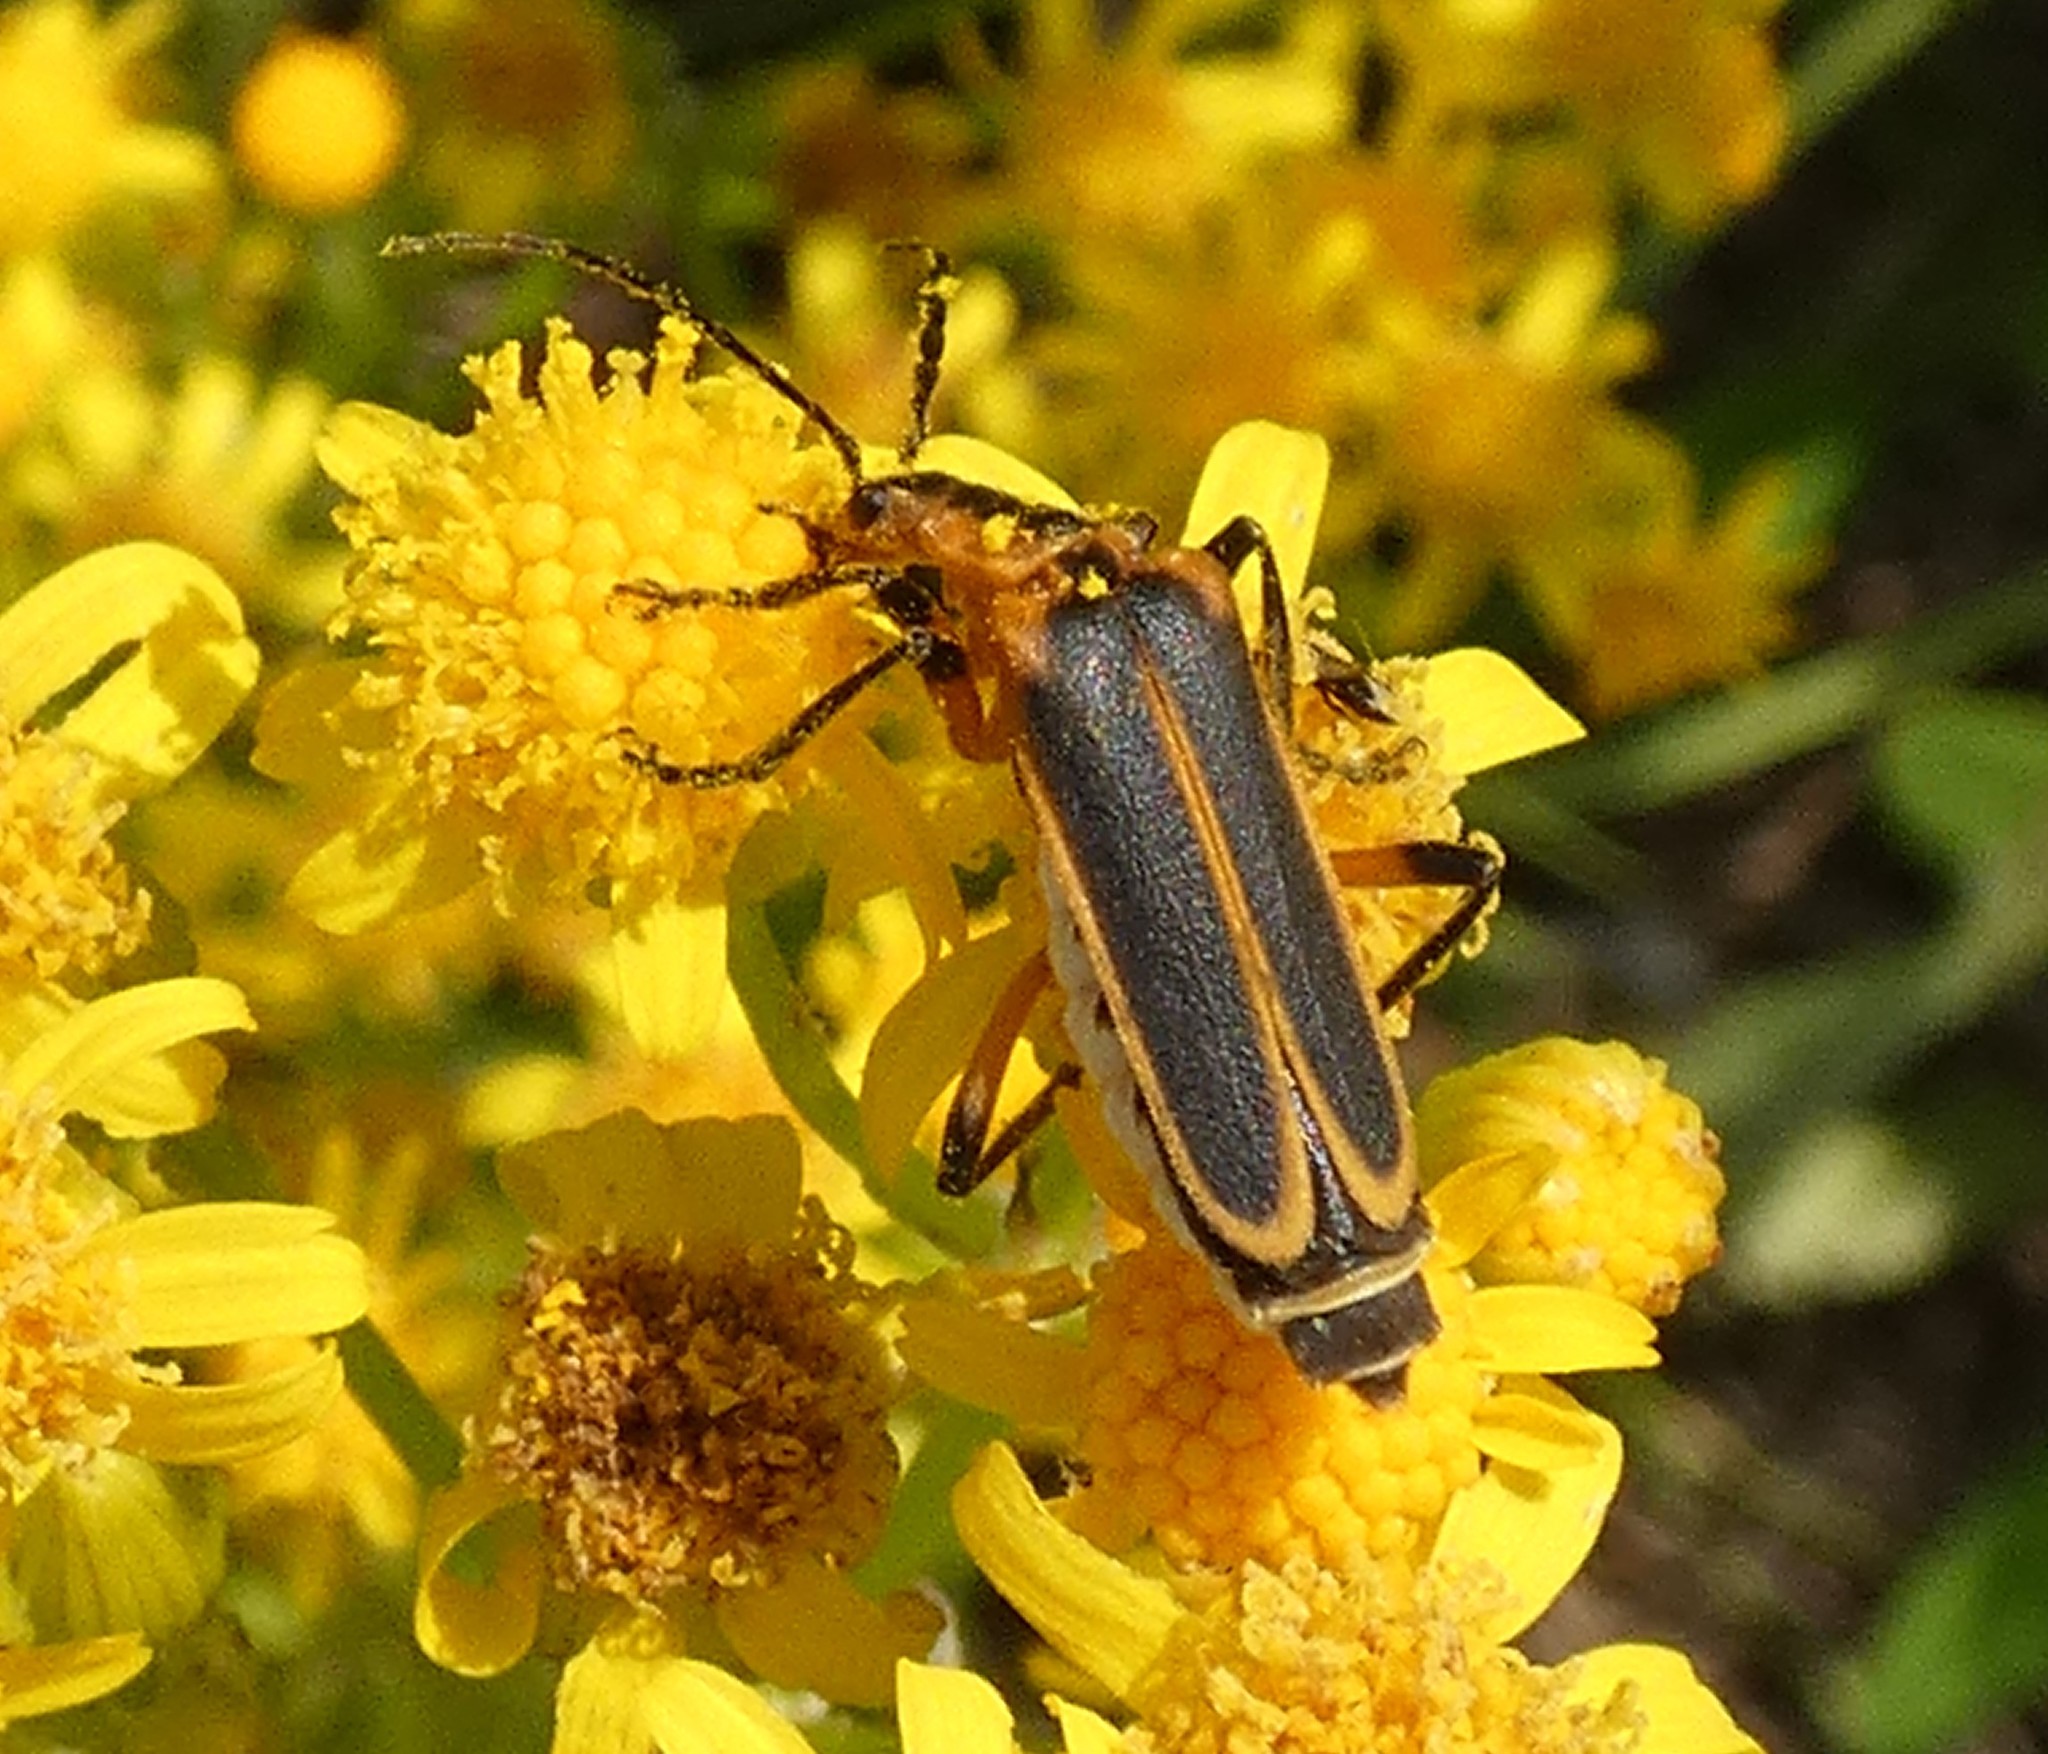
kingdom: Animalia
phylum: Arthropoda
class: Insecta
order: Coleoptera
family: Cantharidae
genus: Chauliognathus
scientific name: Chauliognathus marginatus
